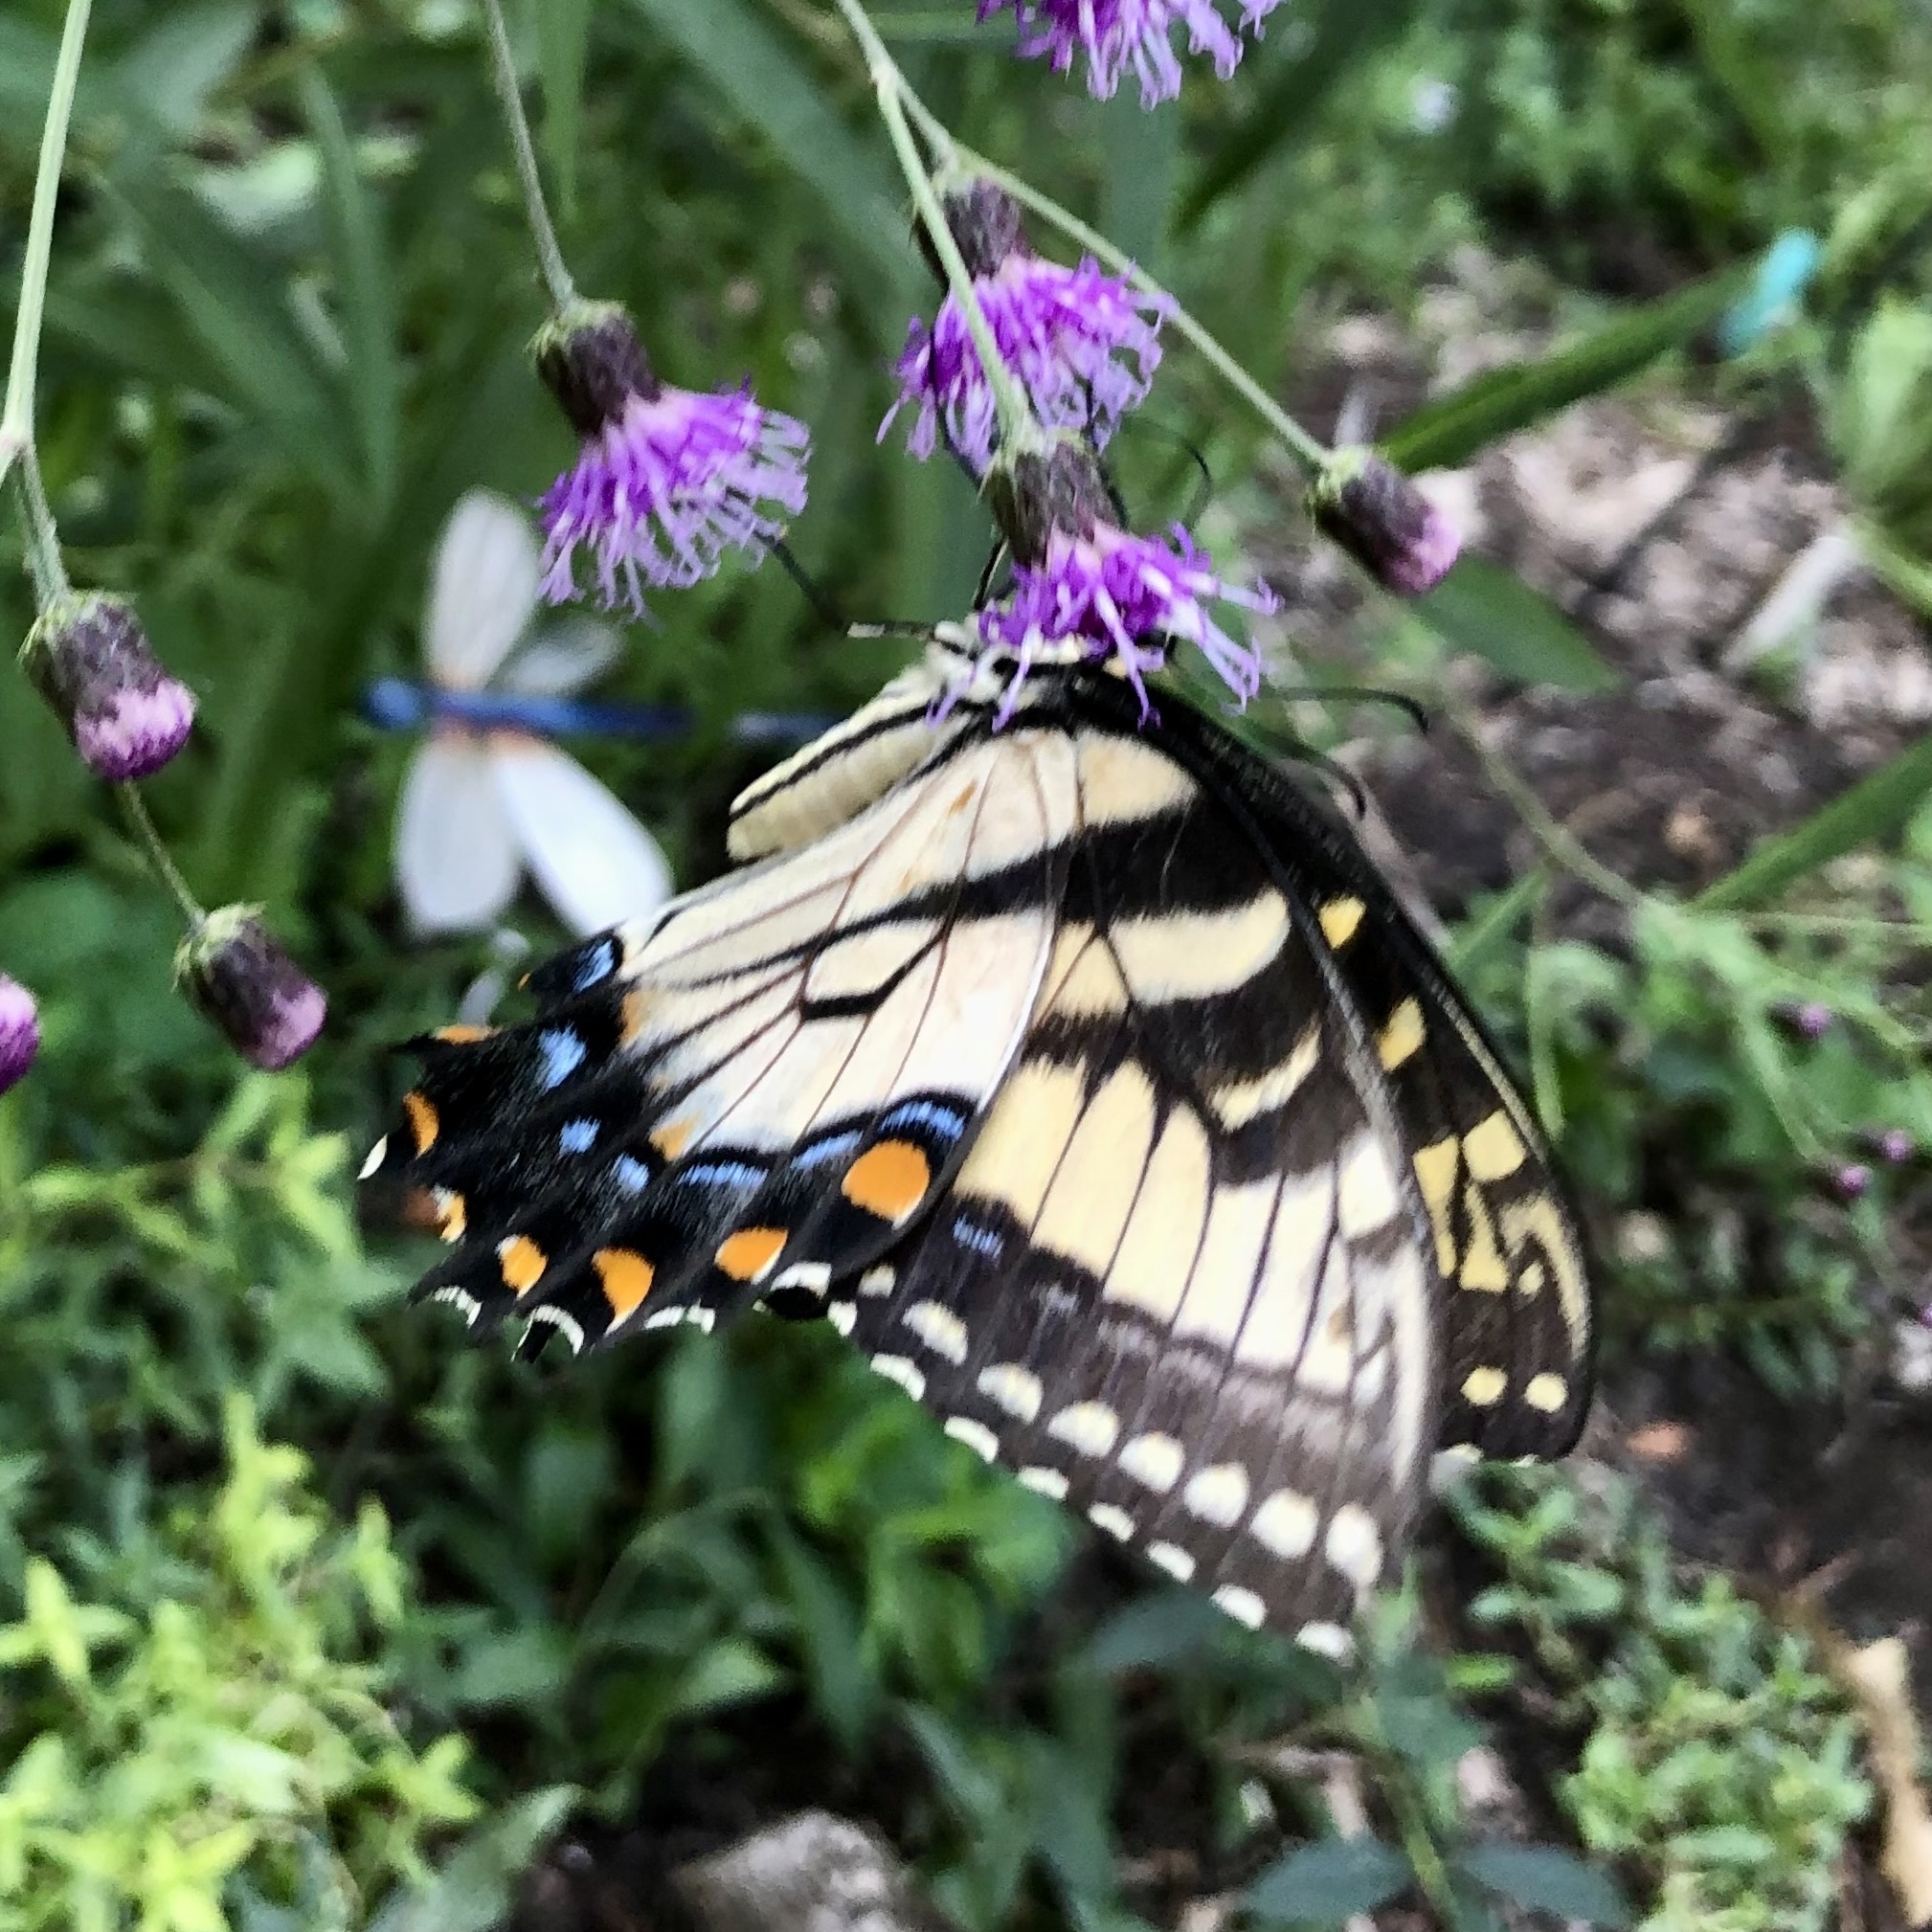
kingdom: Animalia
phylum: Arthropoda
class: Insecta
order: Lepidoptera
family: Papilionidae
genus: Papilio
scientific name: Papilio glaucus
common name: Tiger swallowtail
